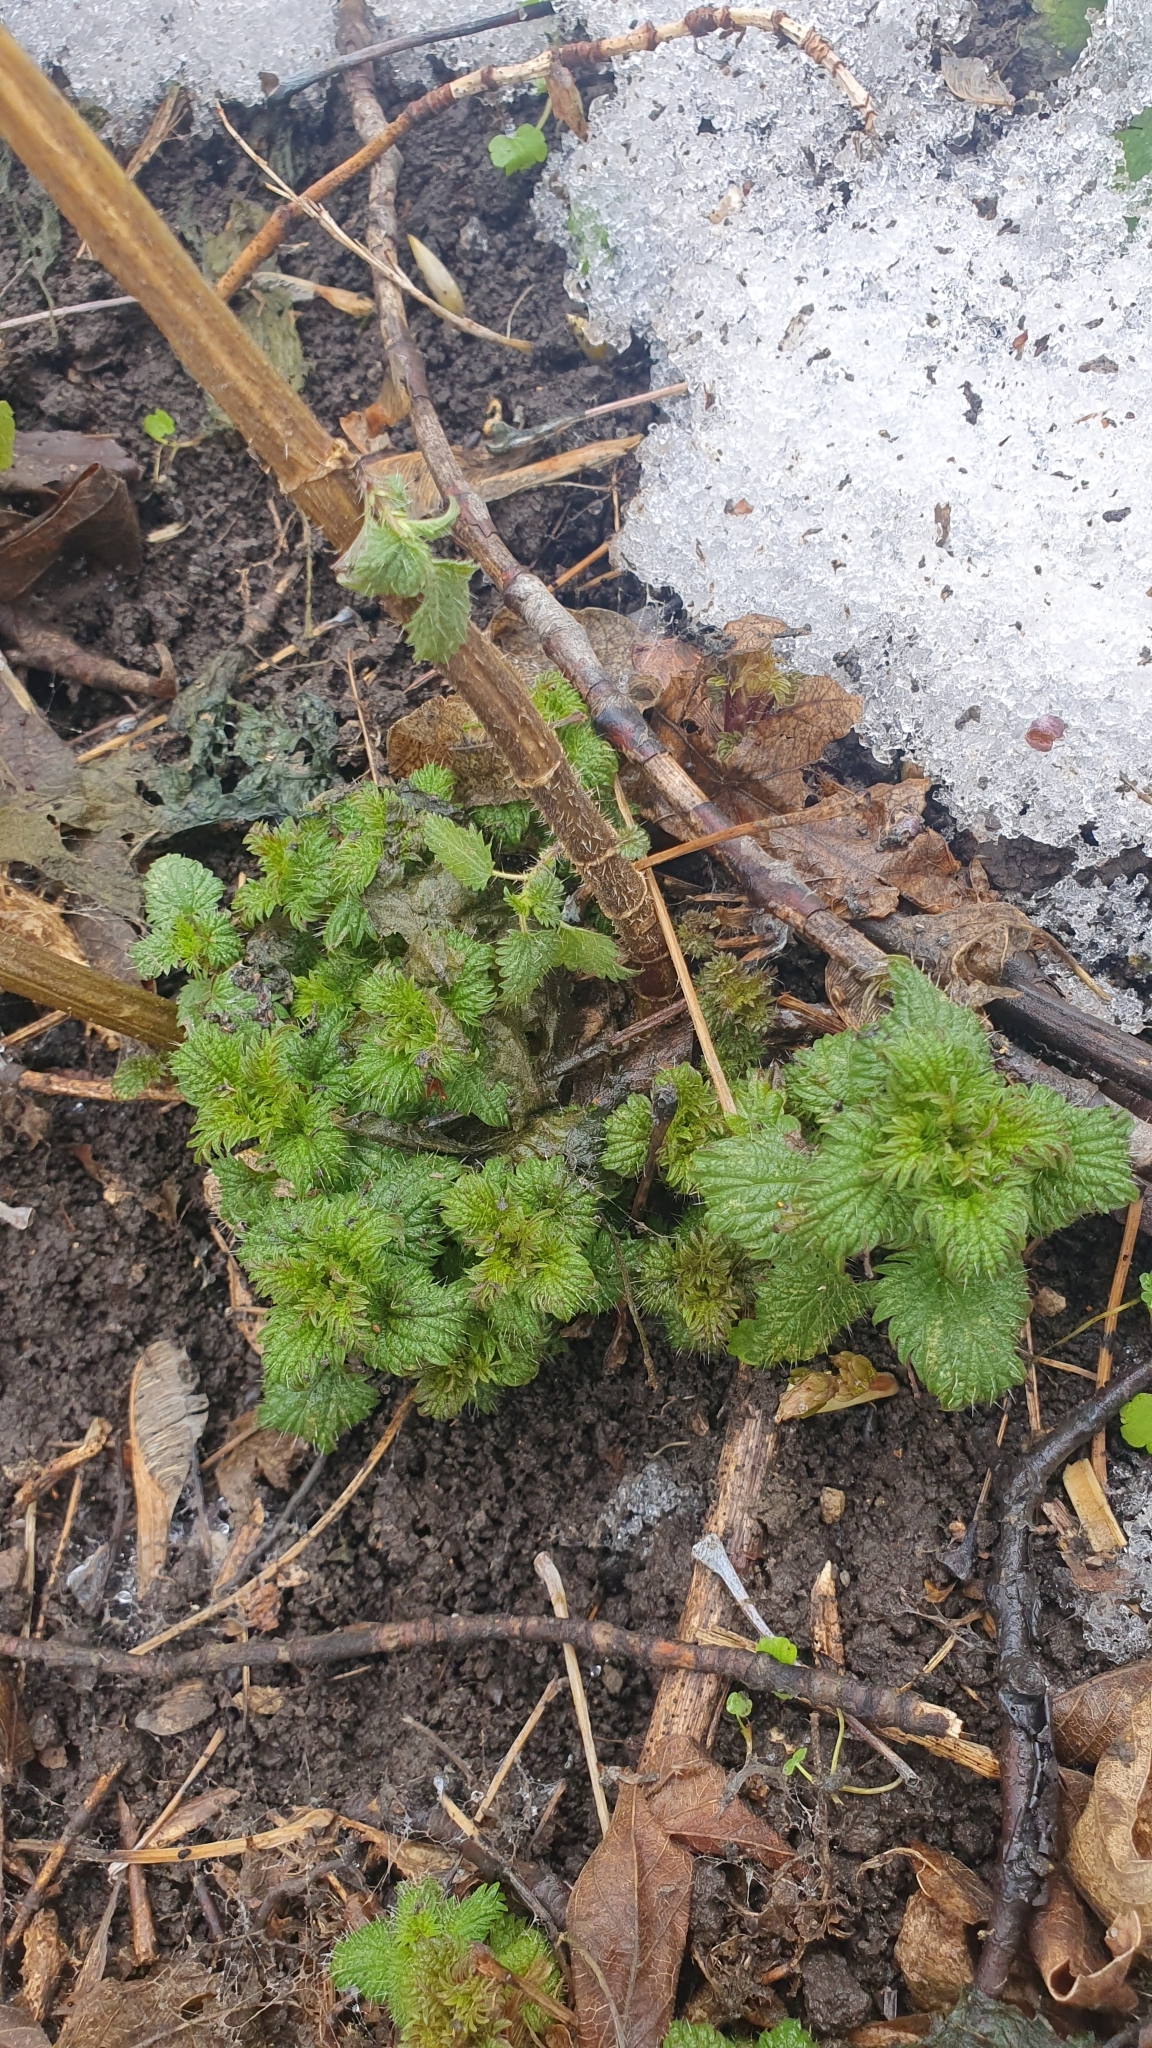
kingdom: Plantae
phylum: Tracheophyta
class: Magnoliopsida
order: Rosales
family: Urticaceae
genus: Urtica
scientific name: Urtica dioica
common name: Common nettle
